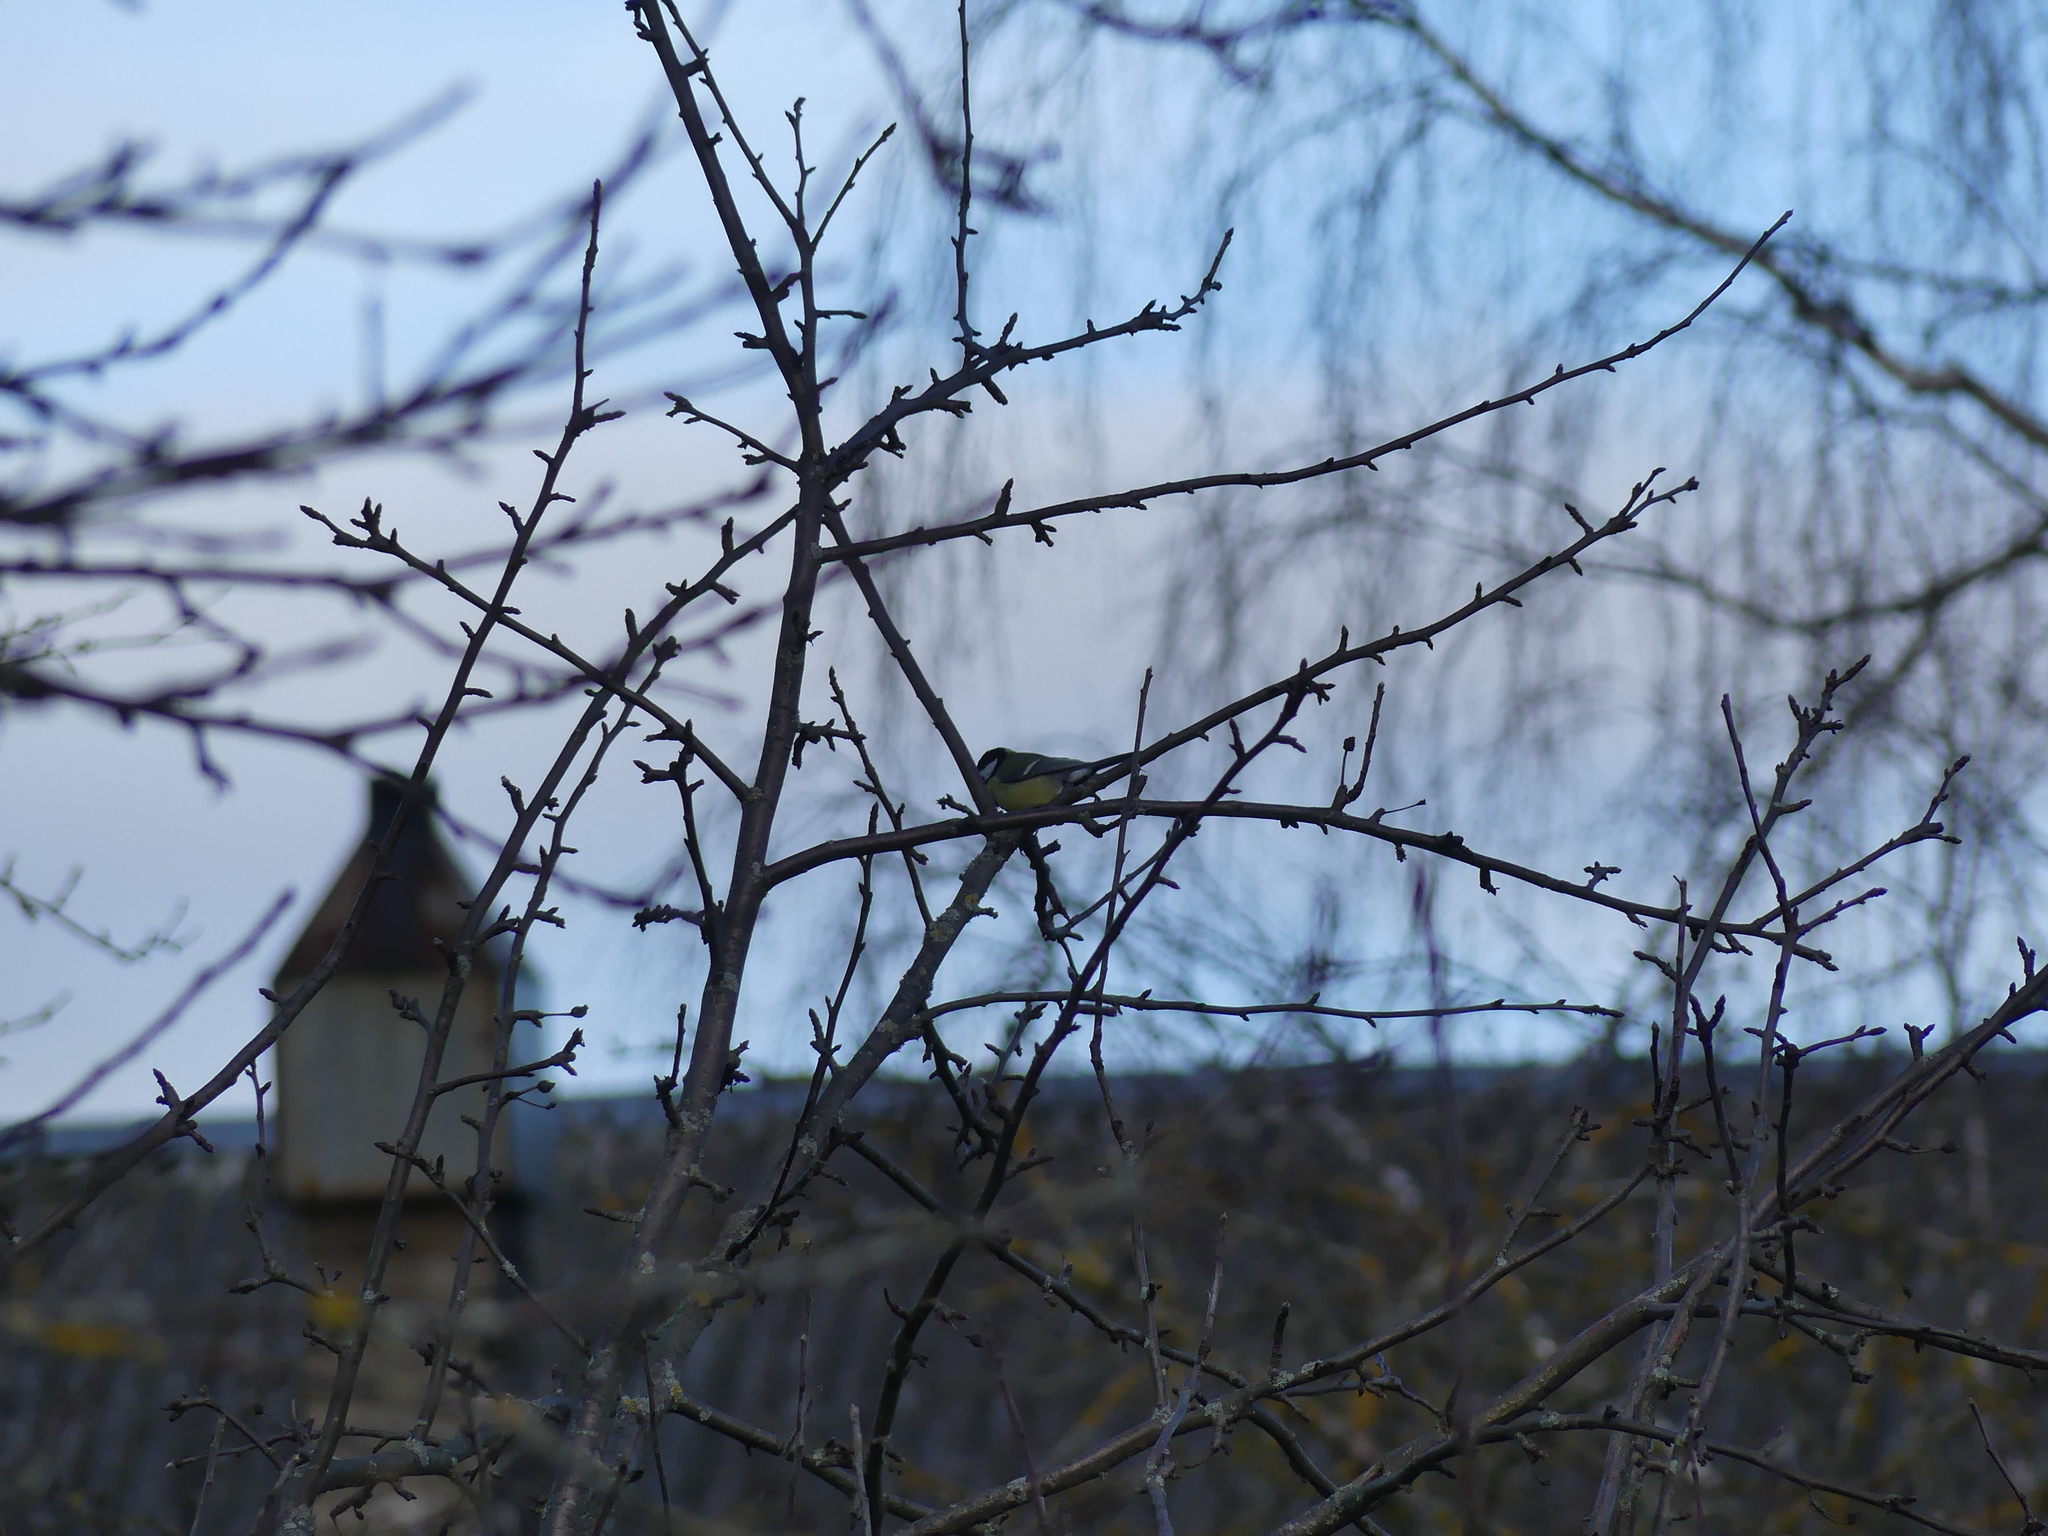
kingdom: Animalia
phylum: Chordata
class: Aves
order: Passeriformes
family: Paridae
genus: Parus
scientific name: Parus major
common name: Great tit
